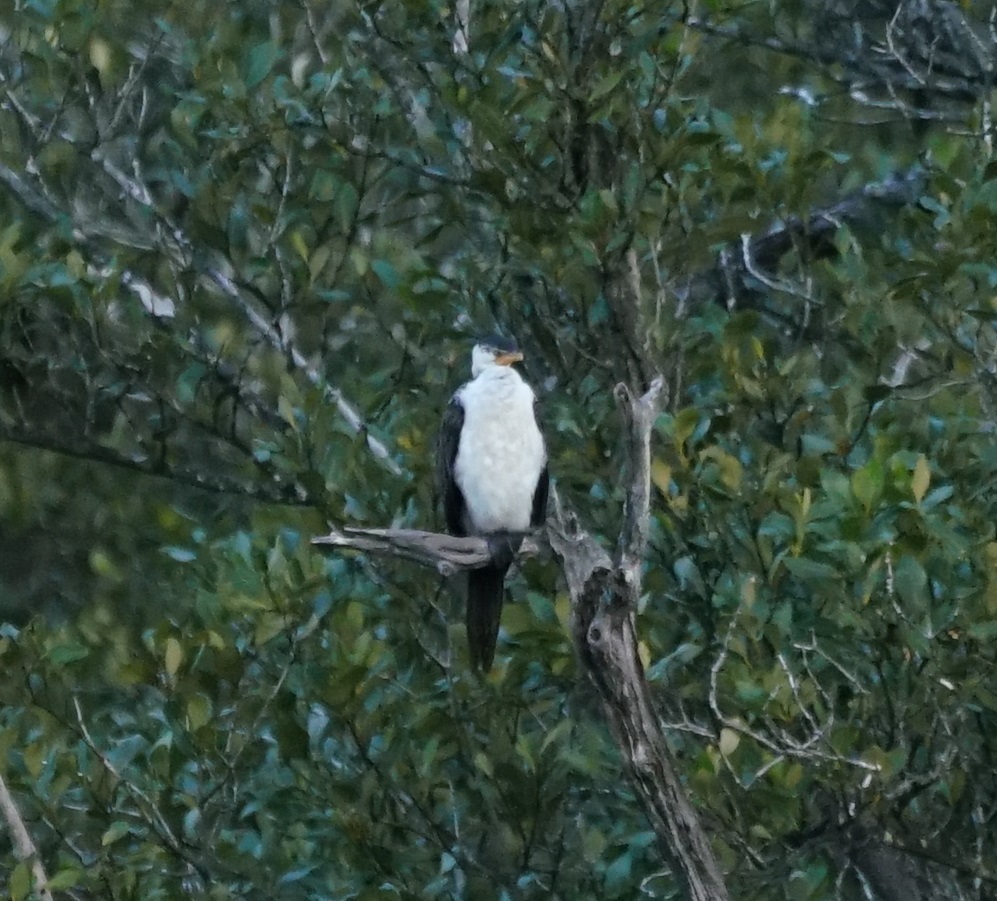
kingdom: Animalia
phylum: Chordata
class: Aves
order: Suliformes
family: Phalacrocoracidae
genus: Microcarbo
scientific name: Microcarbo melanoleucos
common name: Little pied cormorant
